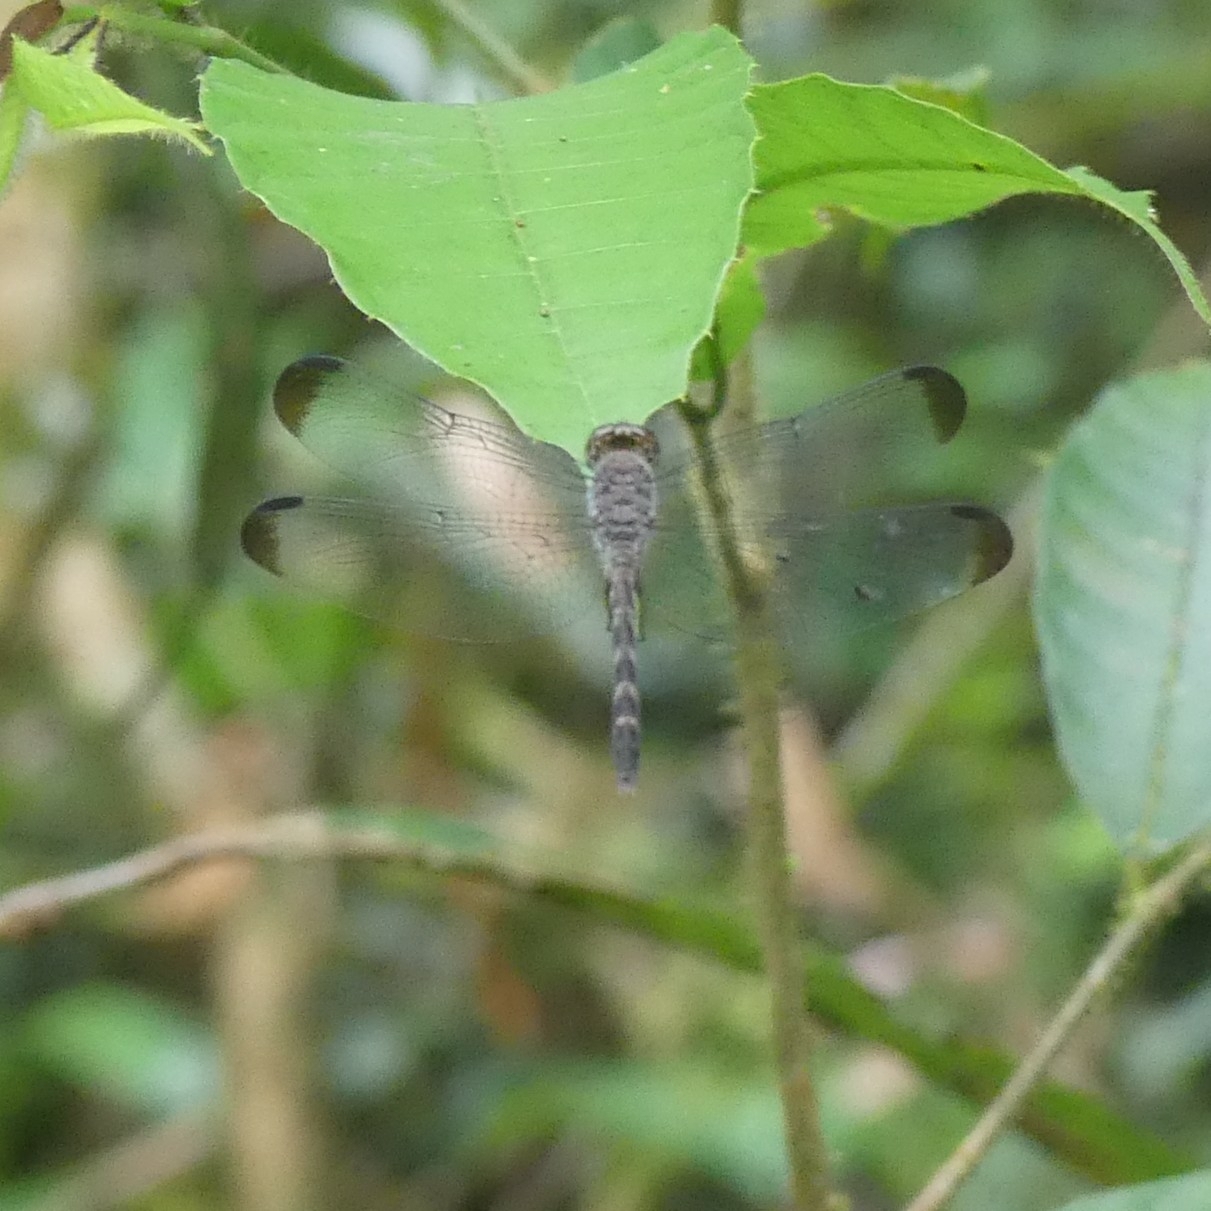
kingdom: Animalia
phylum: Arthropoda
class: Insecta
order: Odonata
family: Libellulidae
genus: Uracis
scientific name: Uracis imbuta
